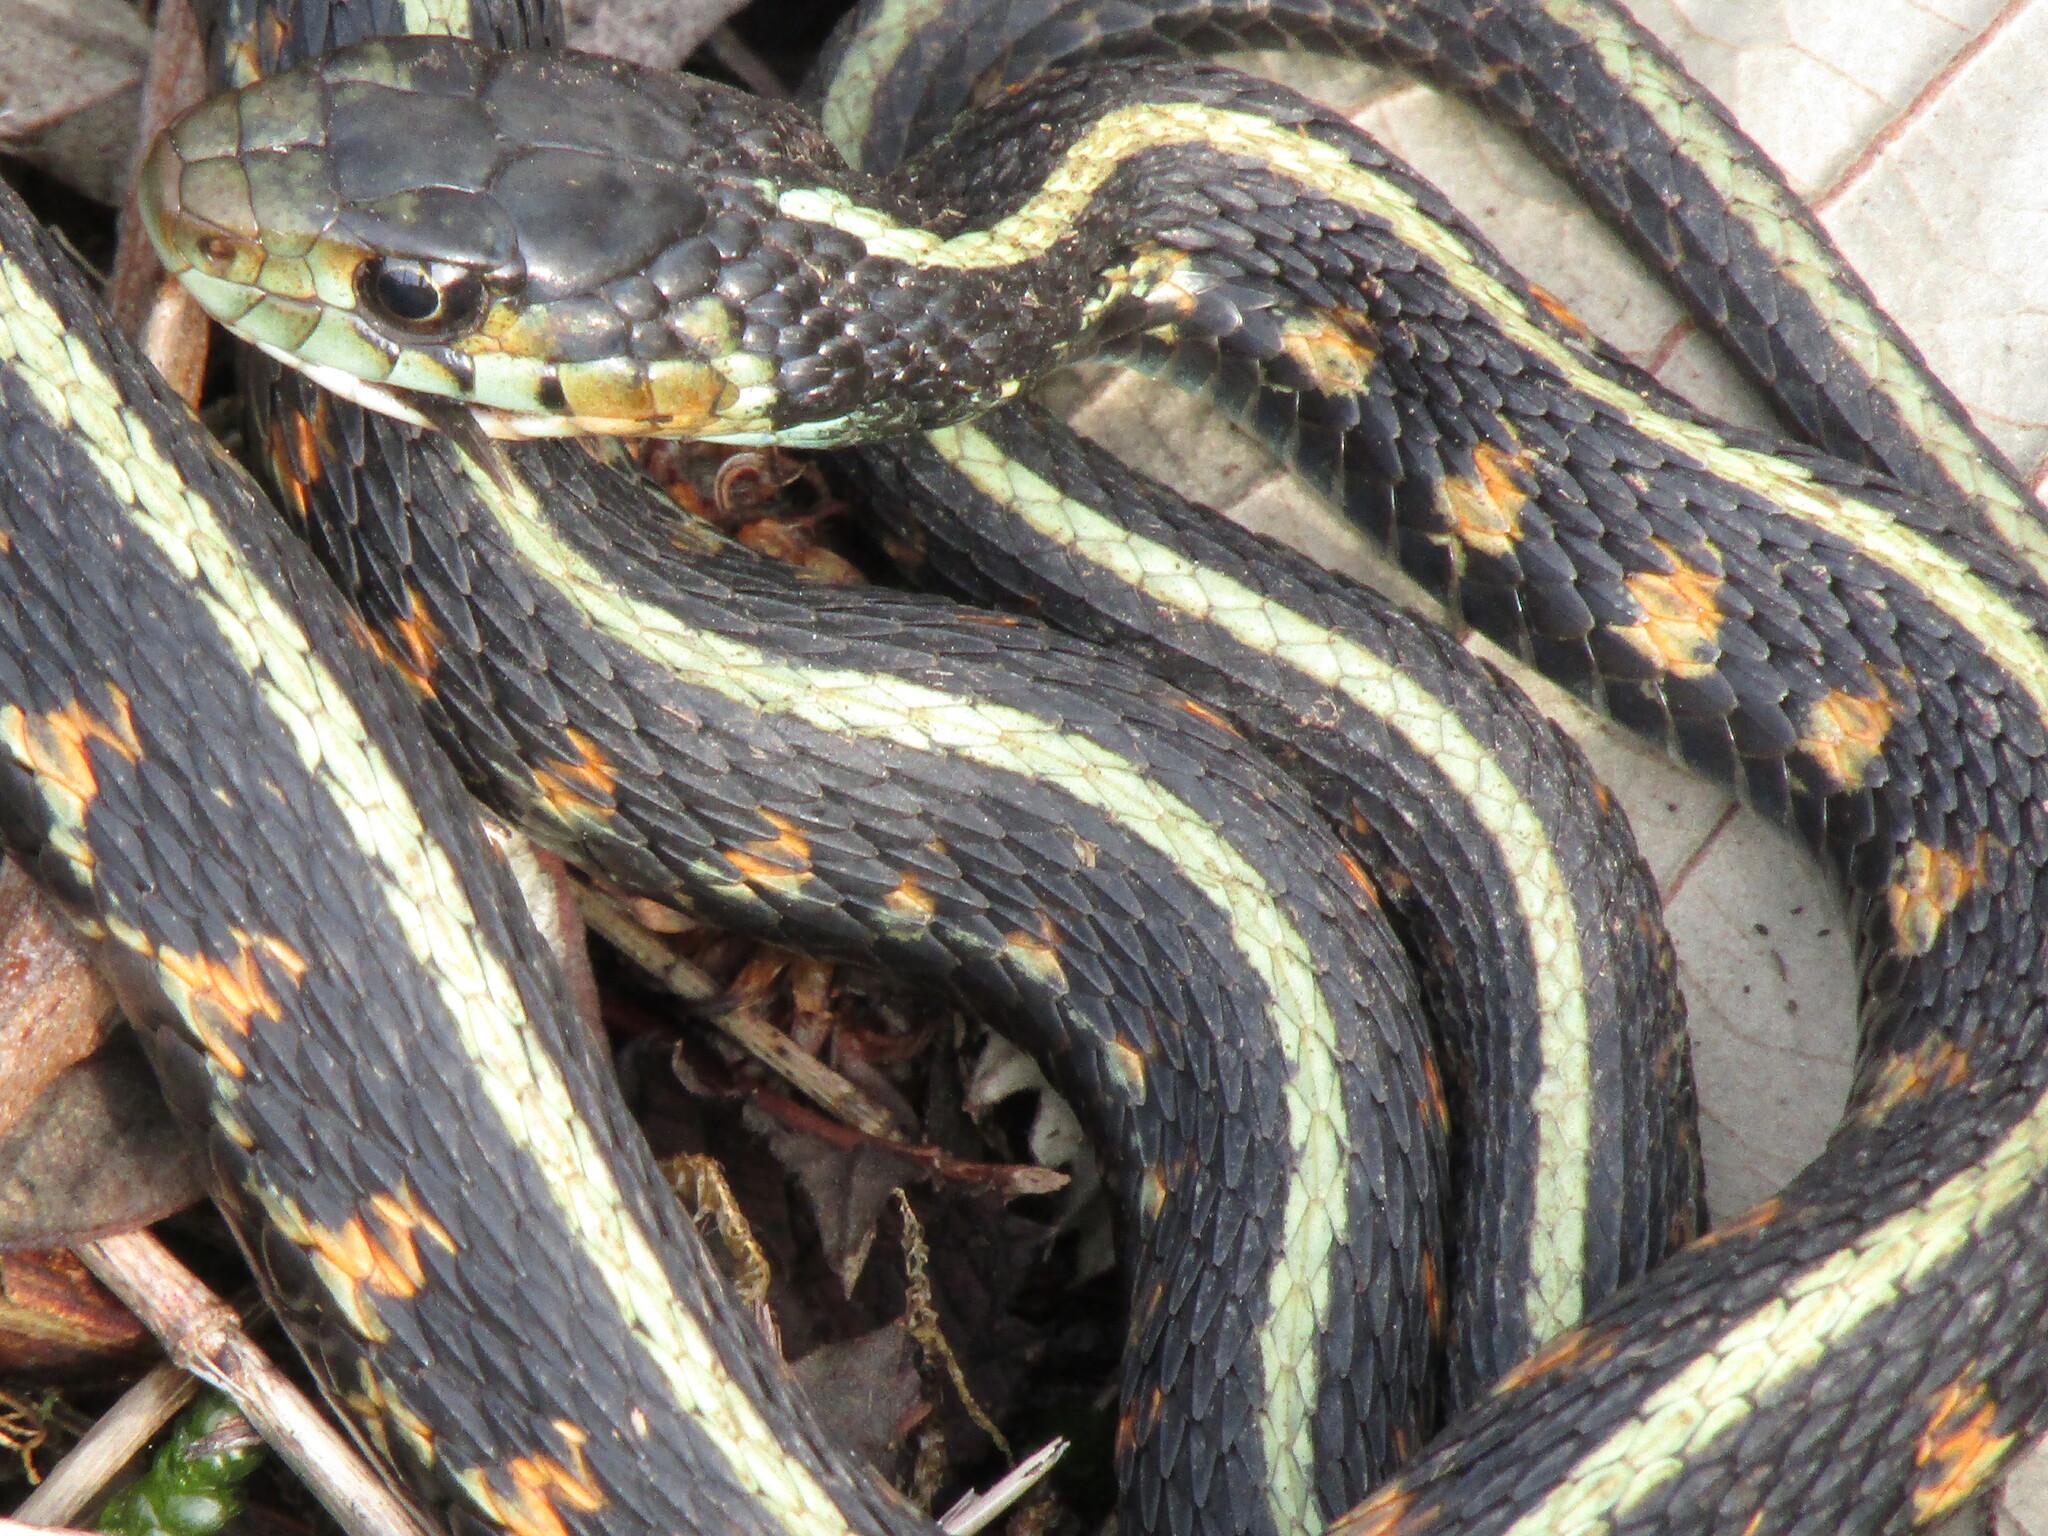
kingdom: Animalia
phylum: Chordata
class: Squamata
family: Colubridae
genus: Thamnophis
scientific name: Thamnophis sirtalis
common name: Common garter snake
